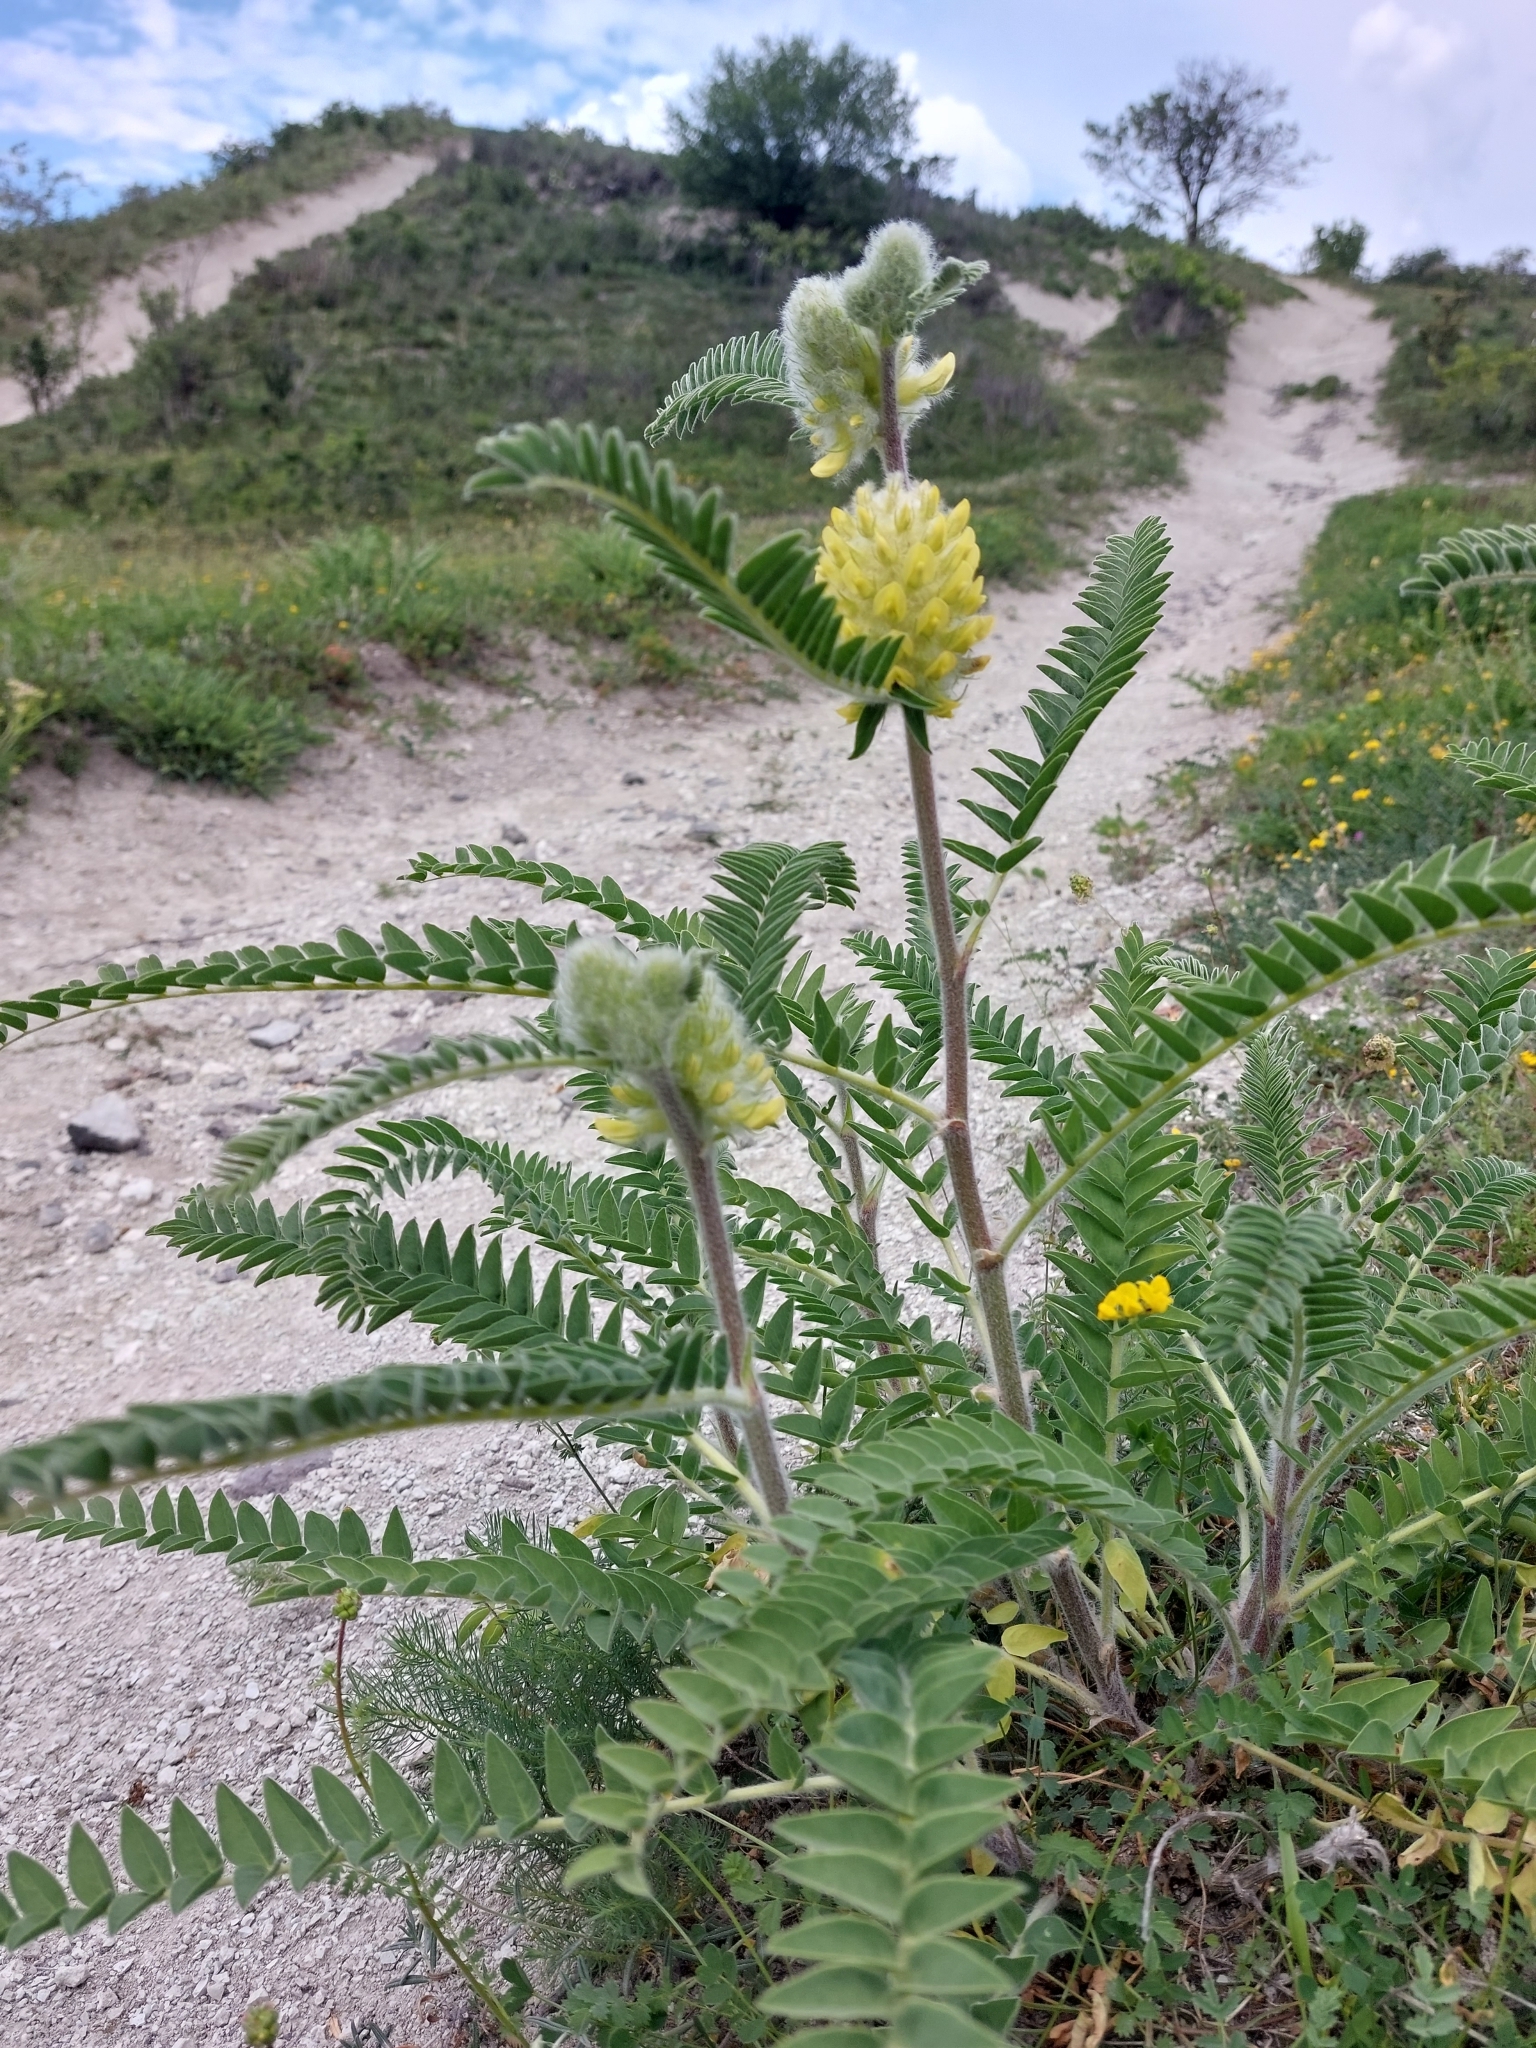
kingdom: Plantae
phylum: Tracheophyta
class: Magnoliopsida
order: Fabales
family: Fabaceae
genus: Astragalus
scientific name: Astragalus alopecurus
